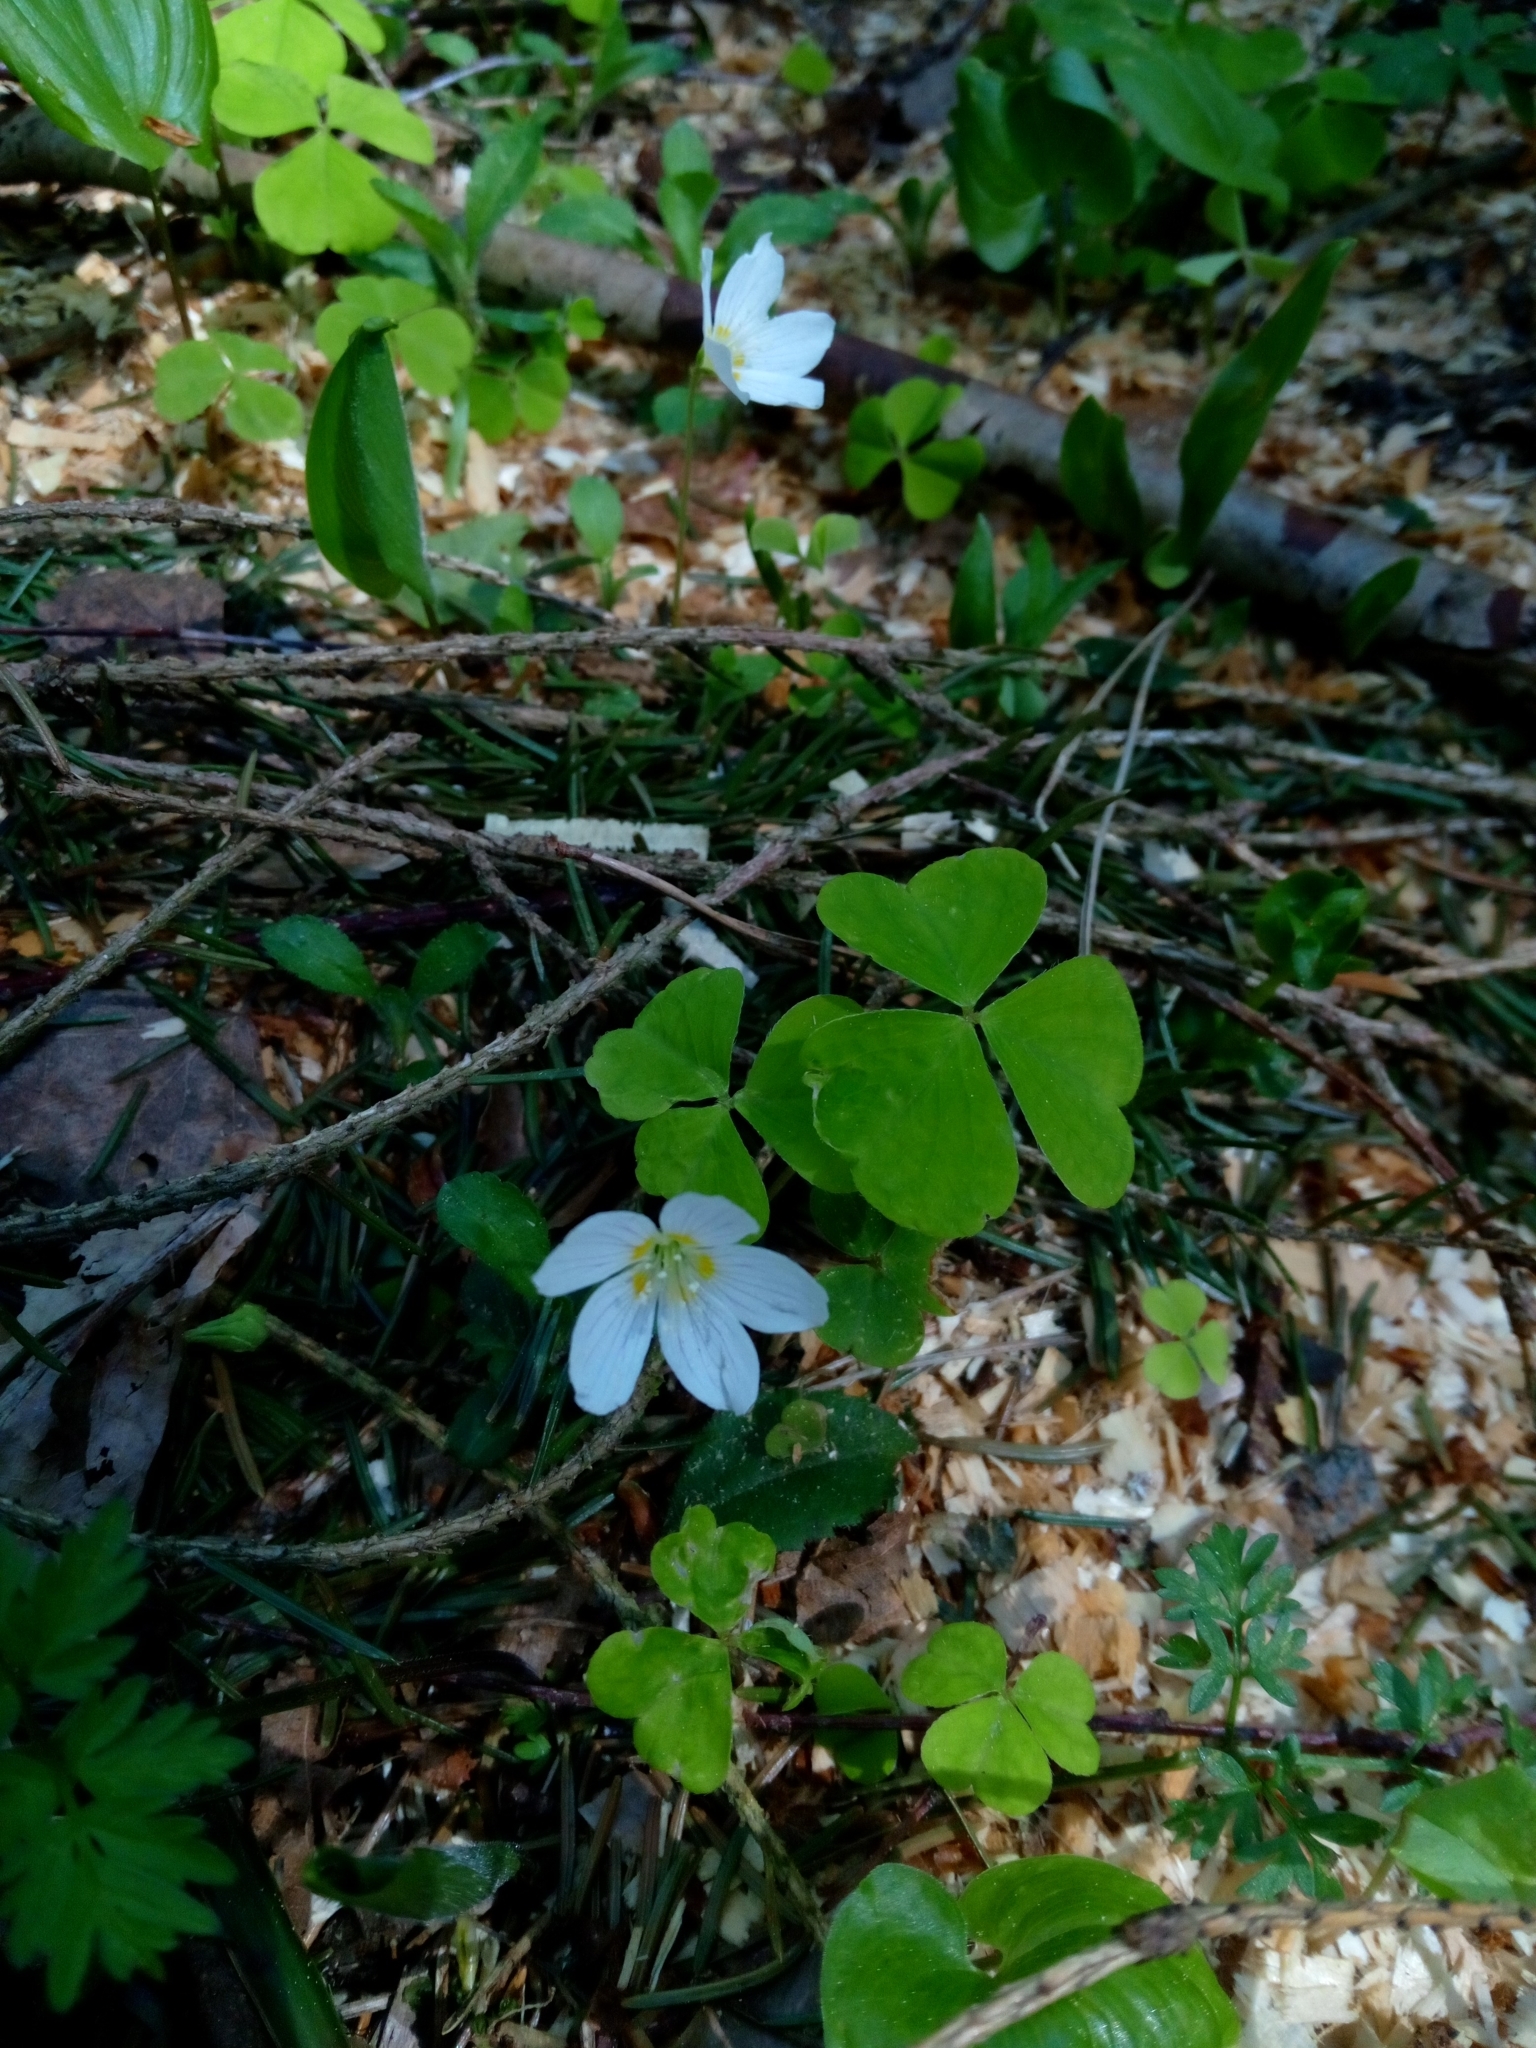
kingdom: Plantae
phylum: Tracheophyta
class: Magnoliopsida
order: Oxalidales
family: Oxalidaceae
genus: Oxalis
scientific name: Oxalis acetosella
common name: Wood-sorrel
